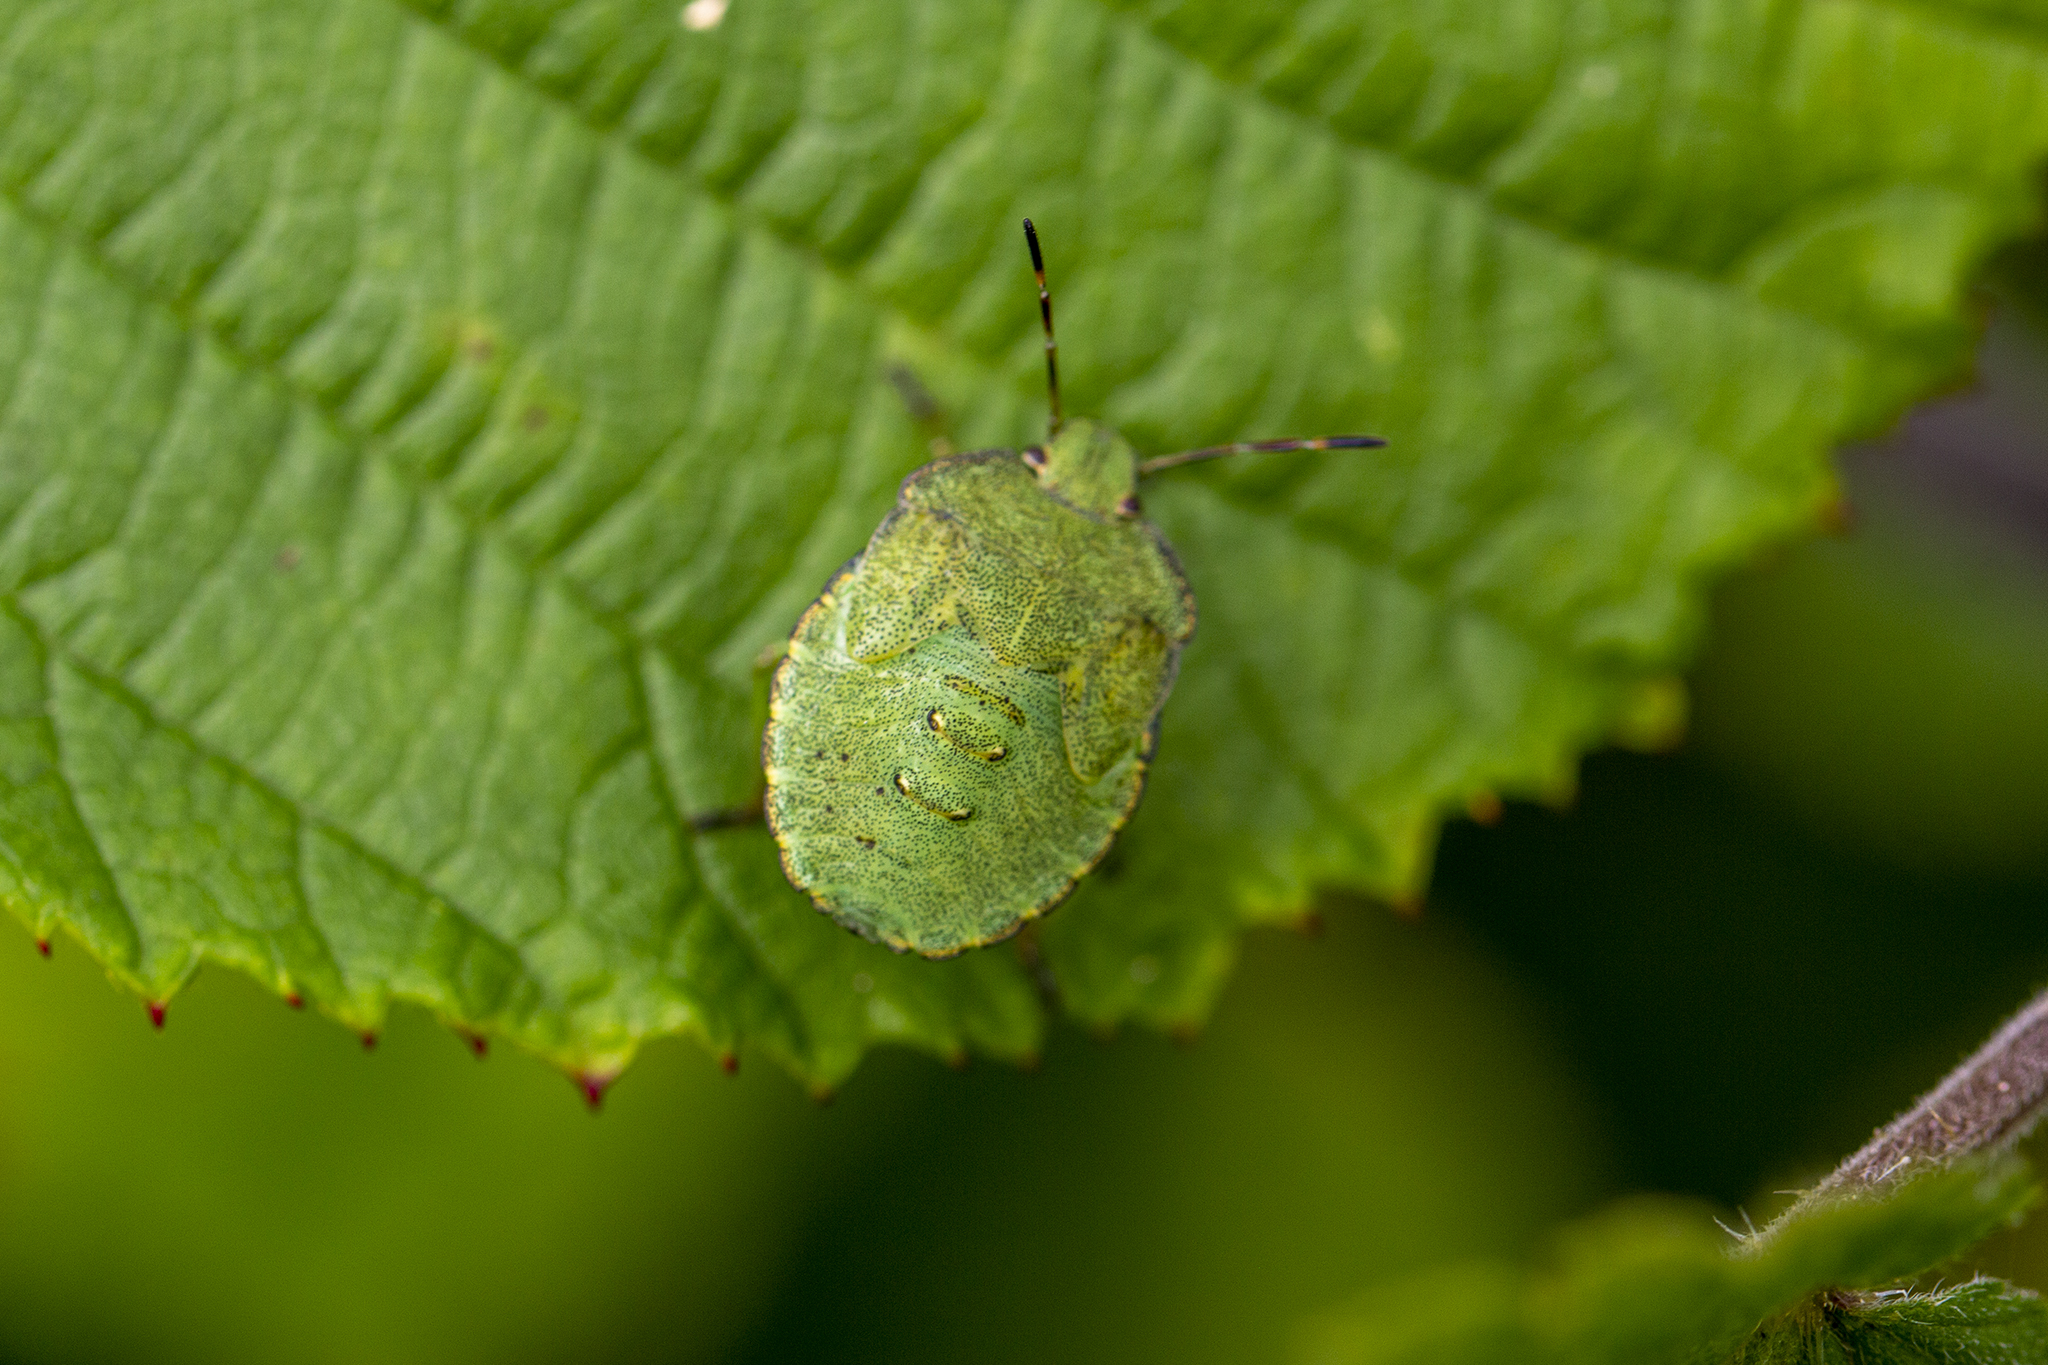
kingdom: Animalia
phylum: Arthropoda
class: Insecta
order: Hemiptera
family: Pentatomidae
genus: Palomena
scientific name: Palomena prasina
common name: Green shieldbug
